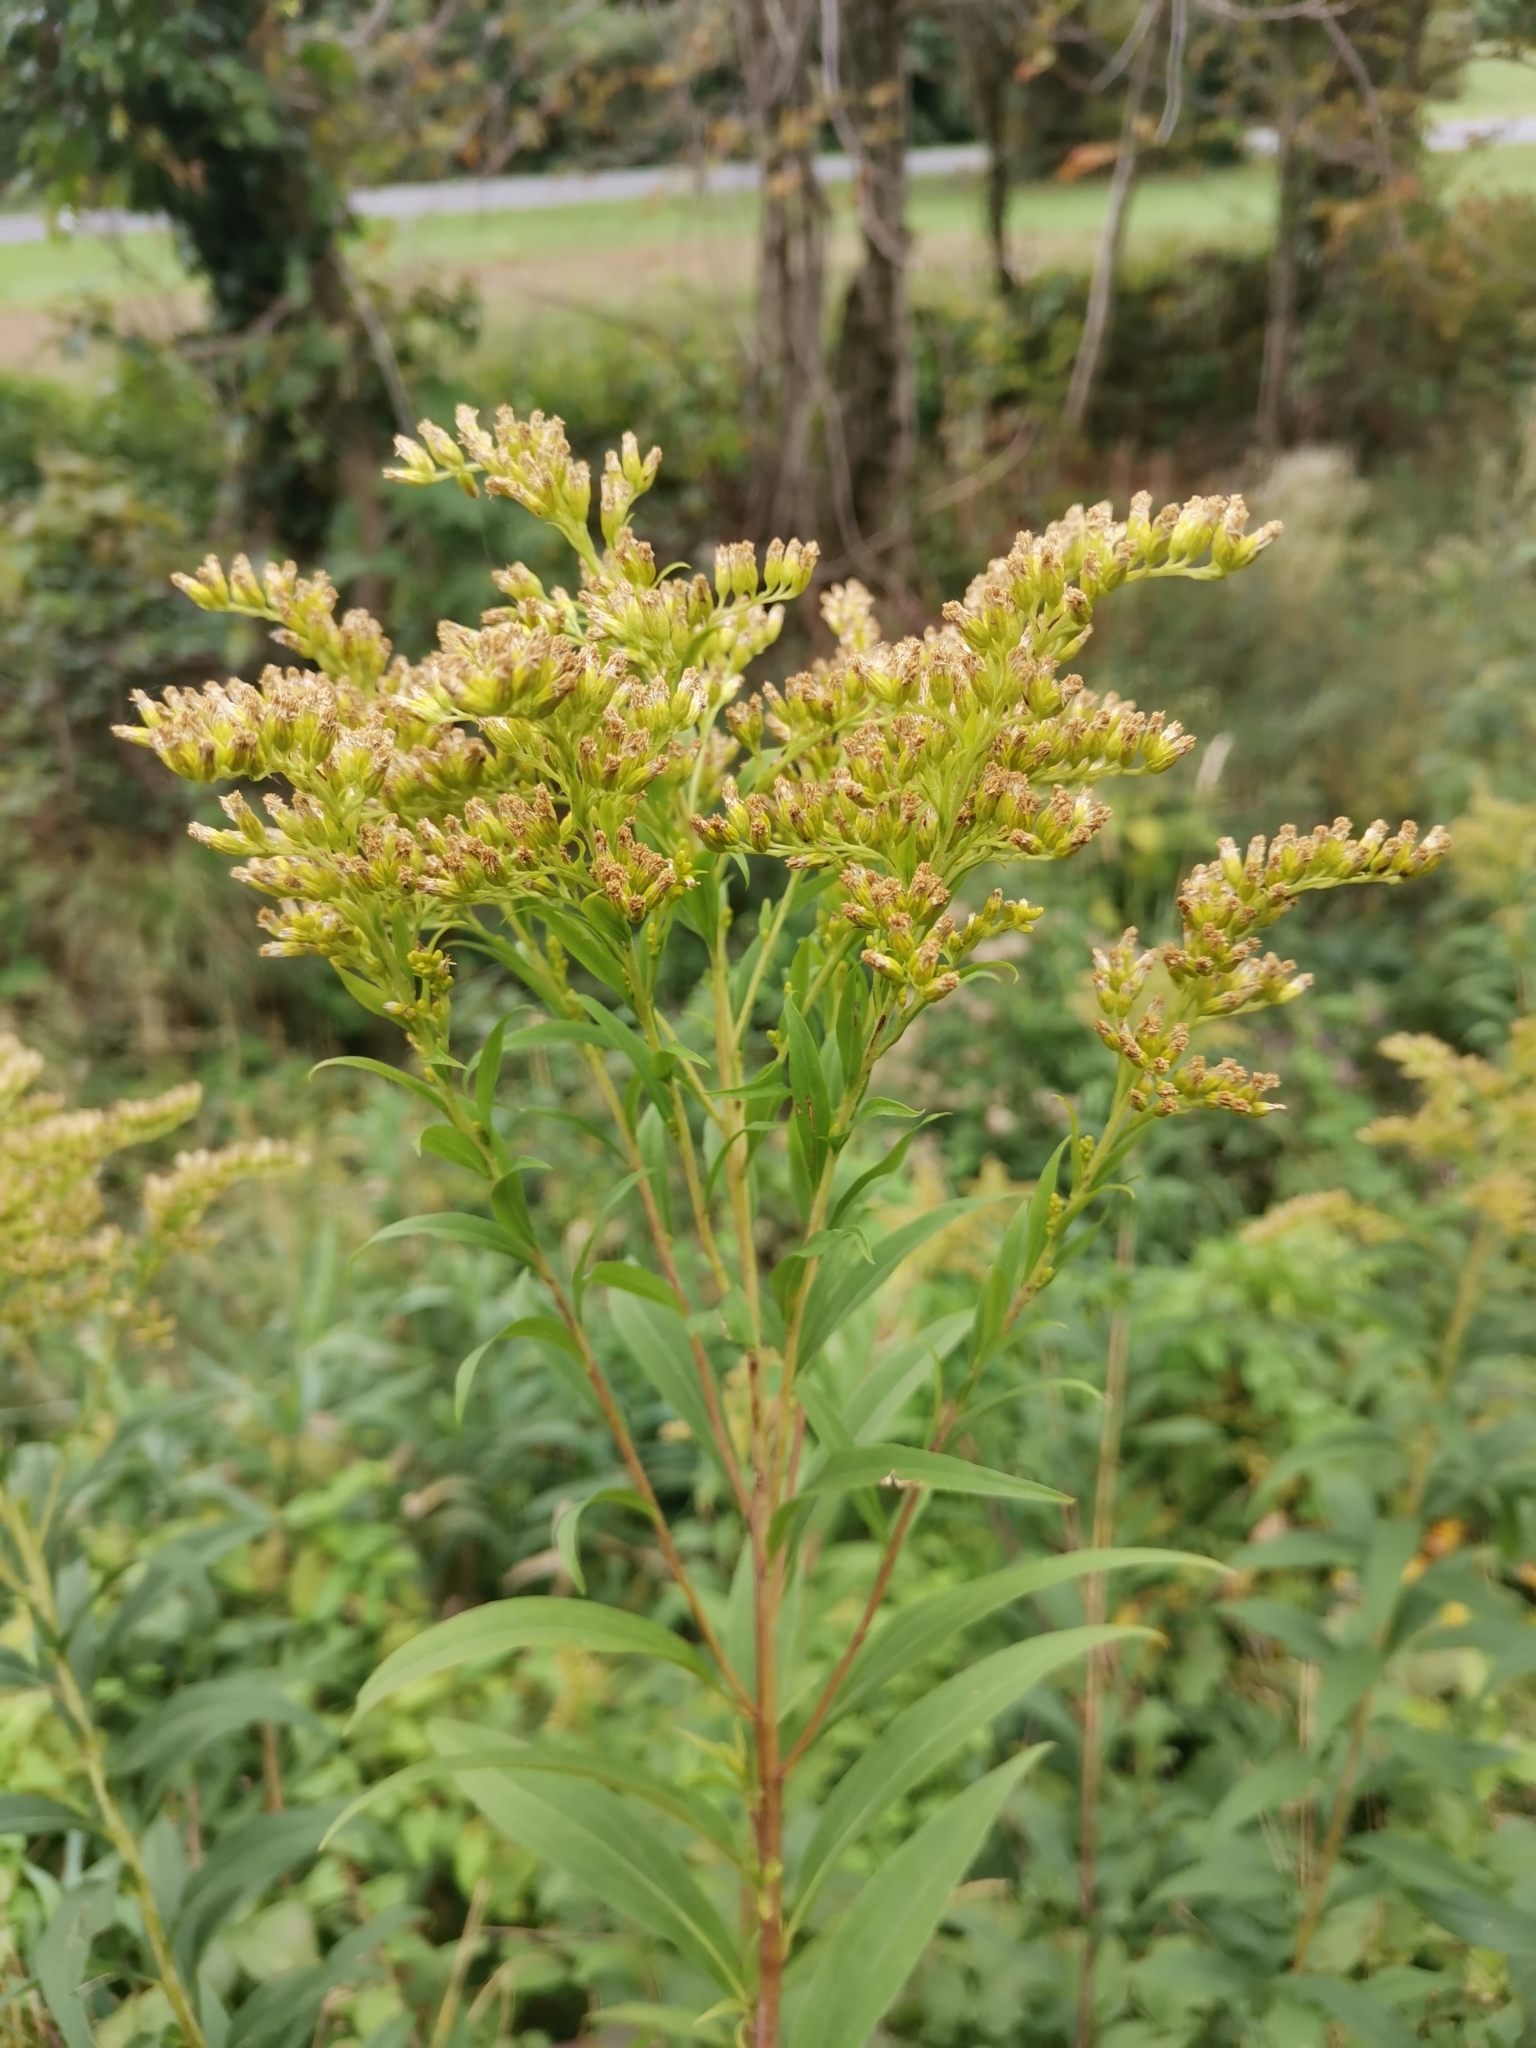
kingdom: Plantae
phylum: Tracheophyta
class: Magnoliopsida
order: Asterales
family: Asteraceae
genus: Solidago
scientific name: Solidago gigantea
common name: Giant goldenrod
